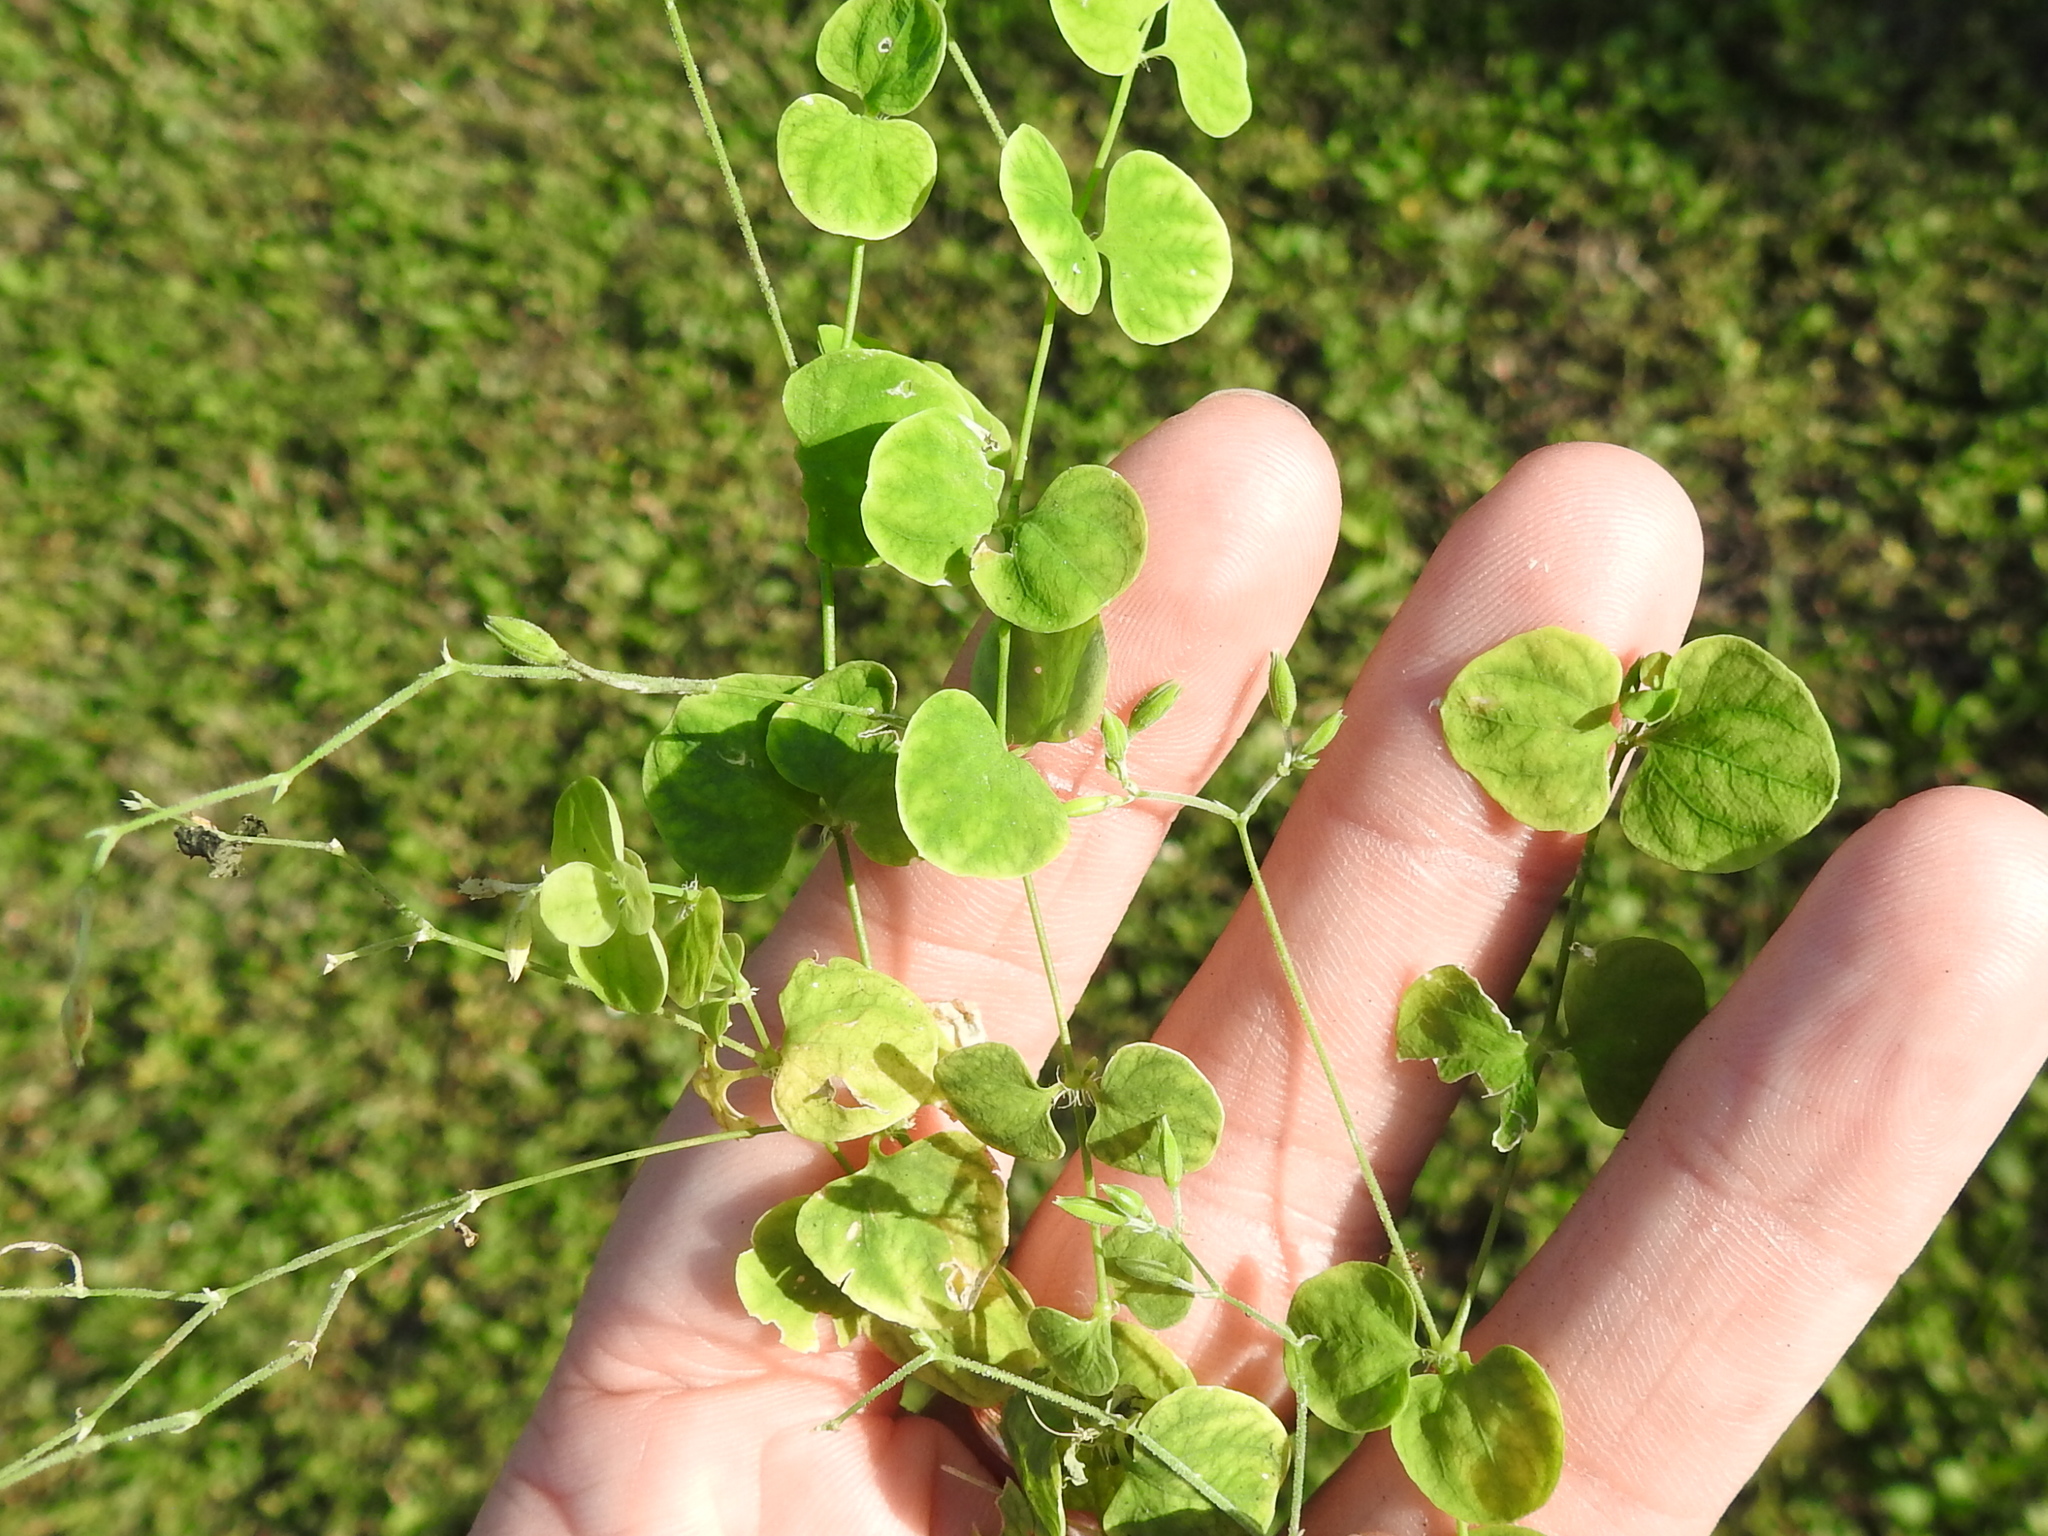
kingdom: Plantae
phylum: Tracheophyta
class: Magnoliopsida
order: Caryophyllales
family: Caryophyllaceae
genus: Drymaria
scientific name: Drymaria cordata
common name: Whitesnow
